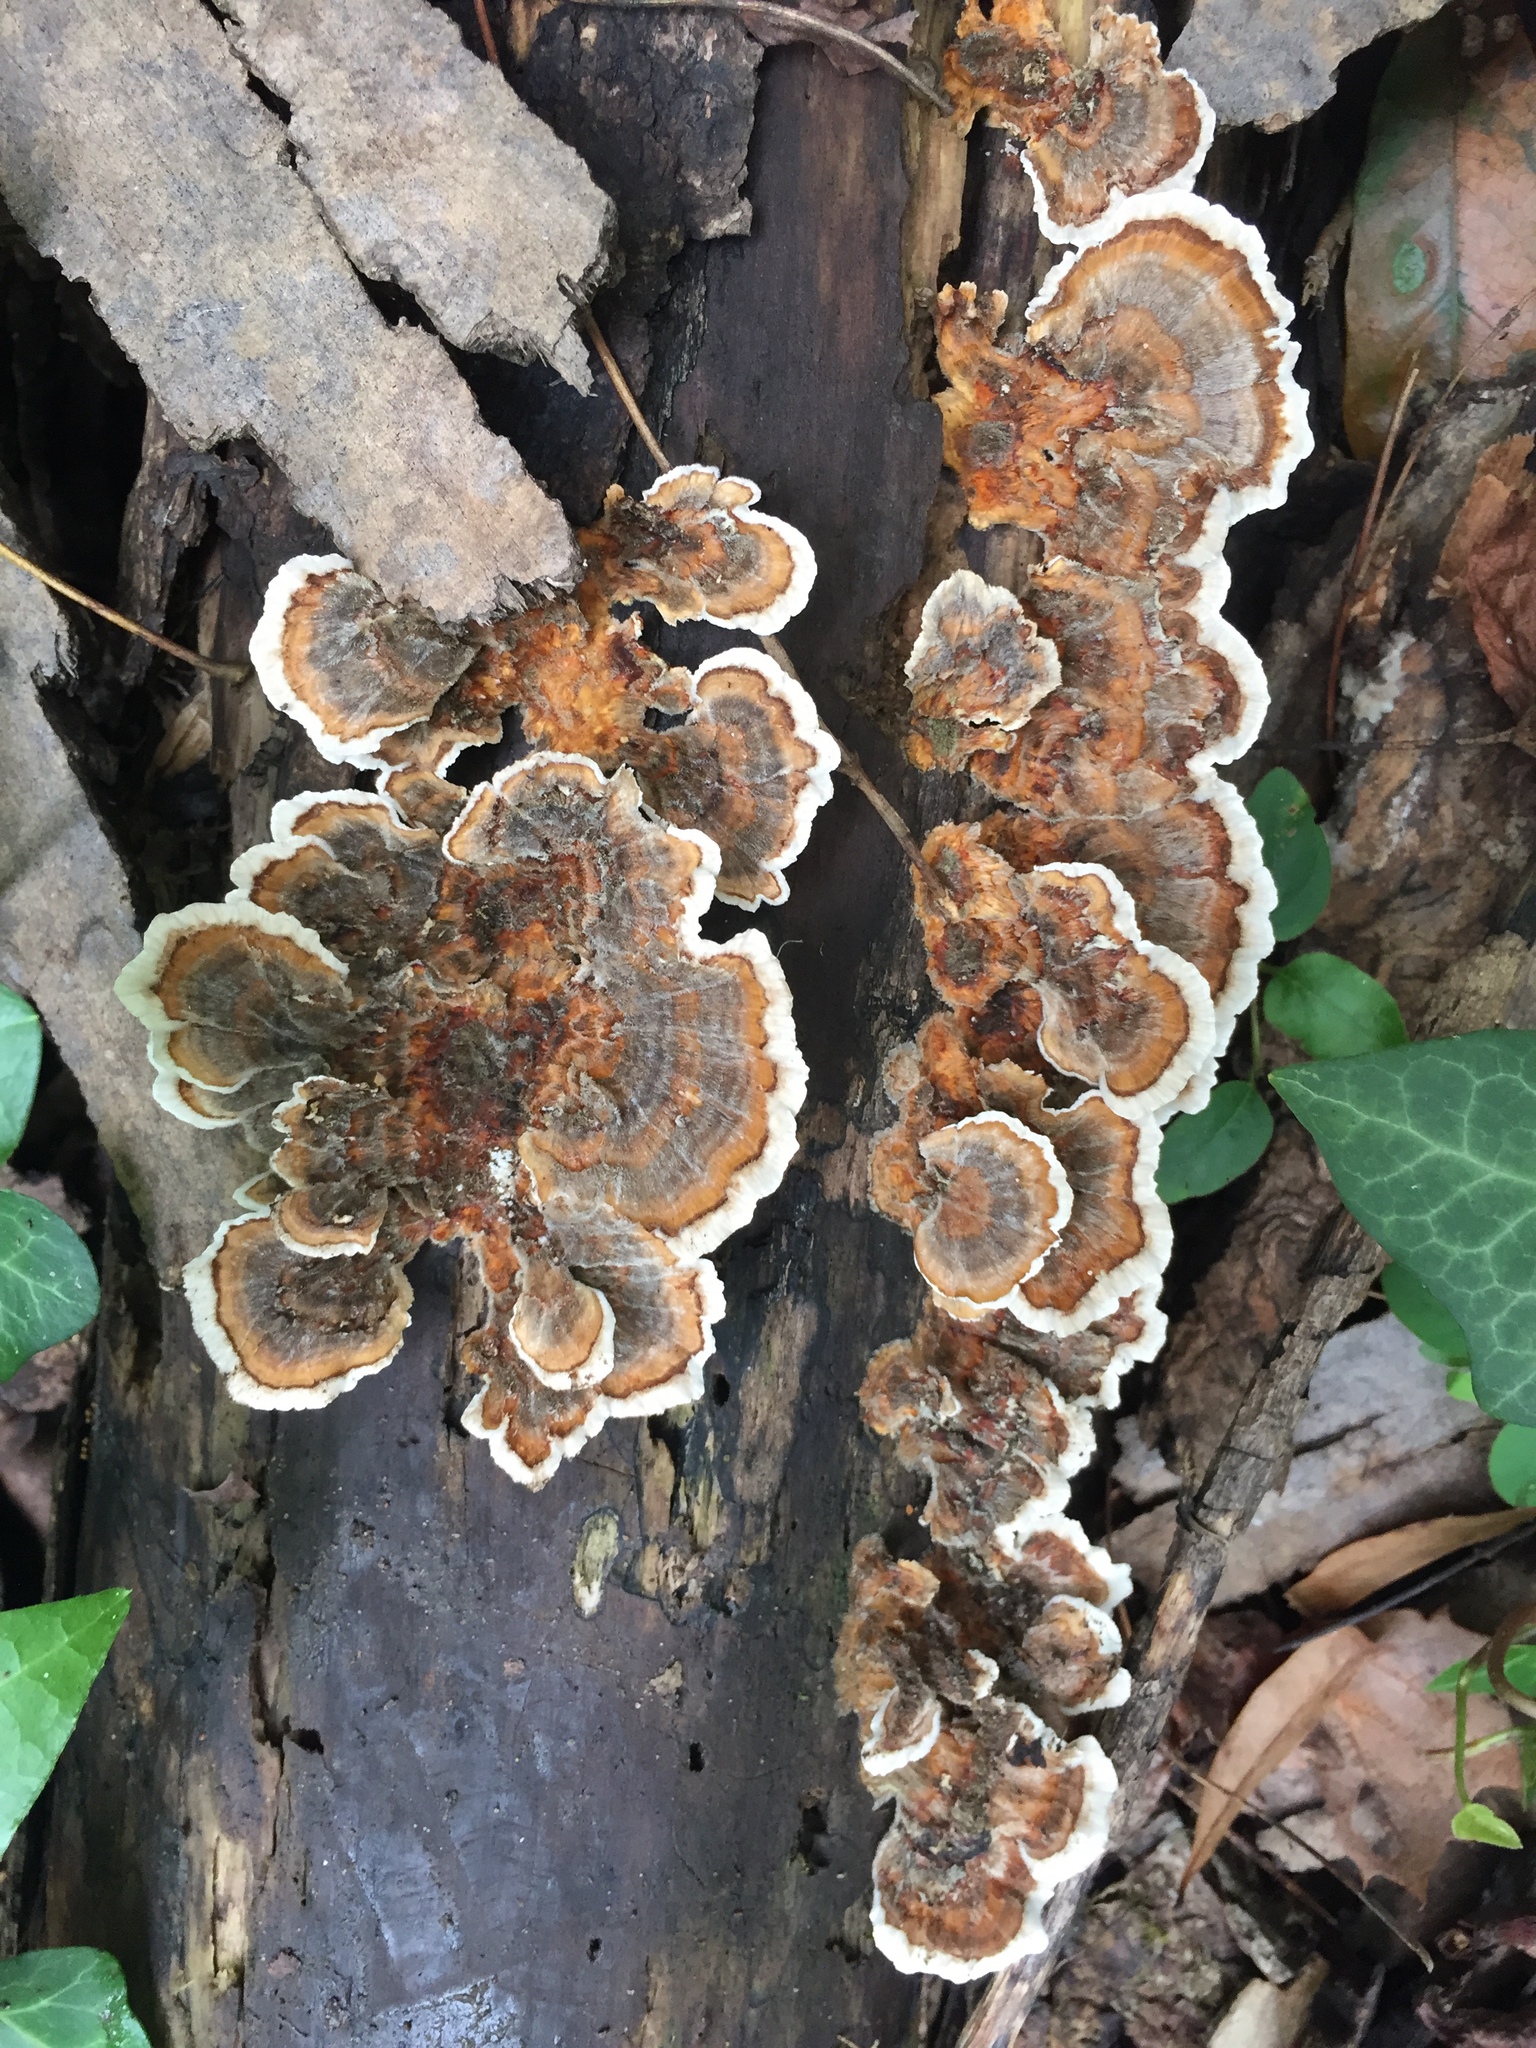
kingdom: Fungi
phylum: Basidiomycota
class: Agaricomycetes
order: Polyporales
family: Polyporaceae
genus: Trametes
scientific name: Trametes versicolor
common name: Turkeytail
